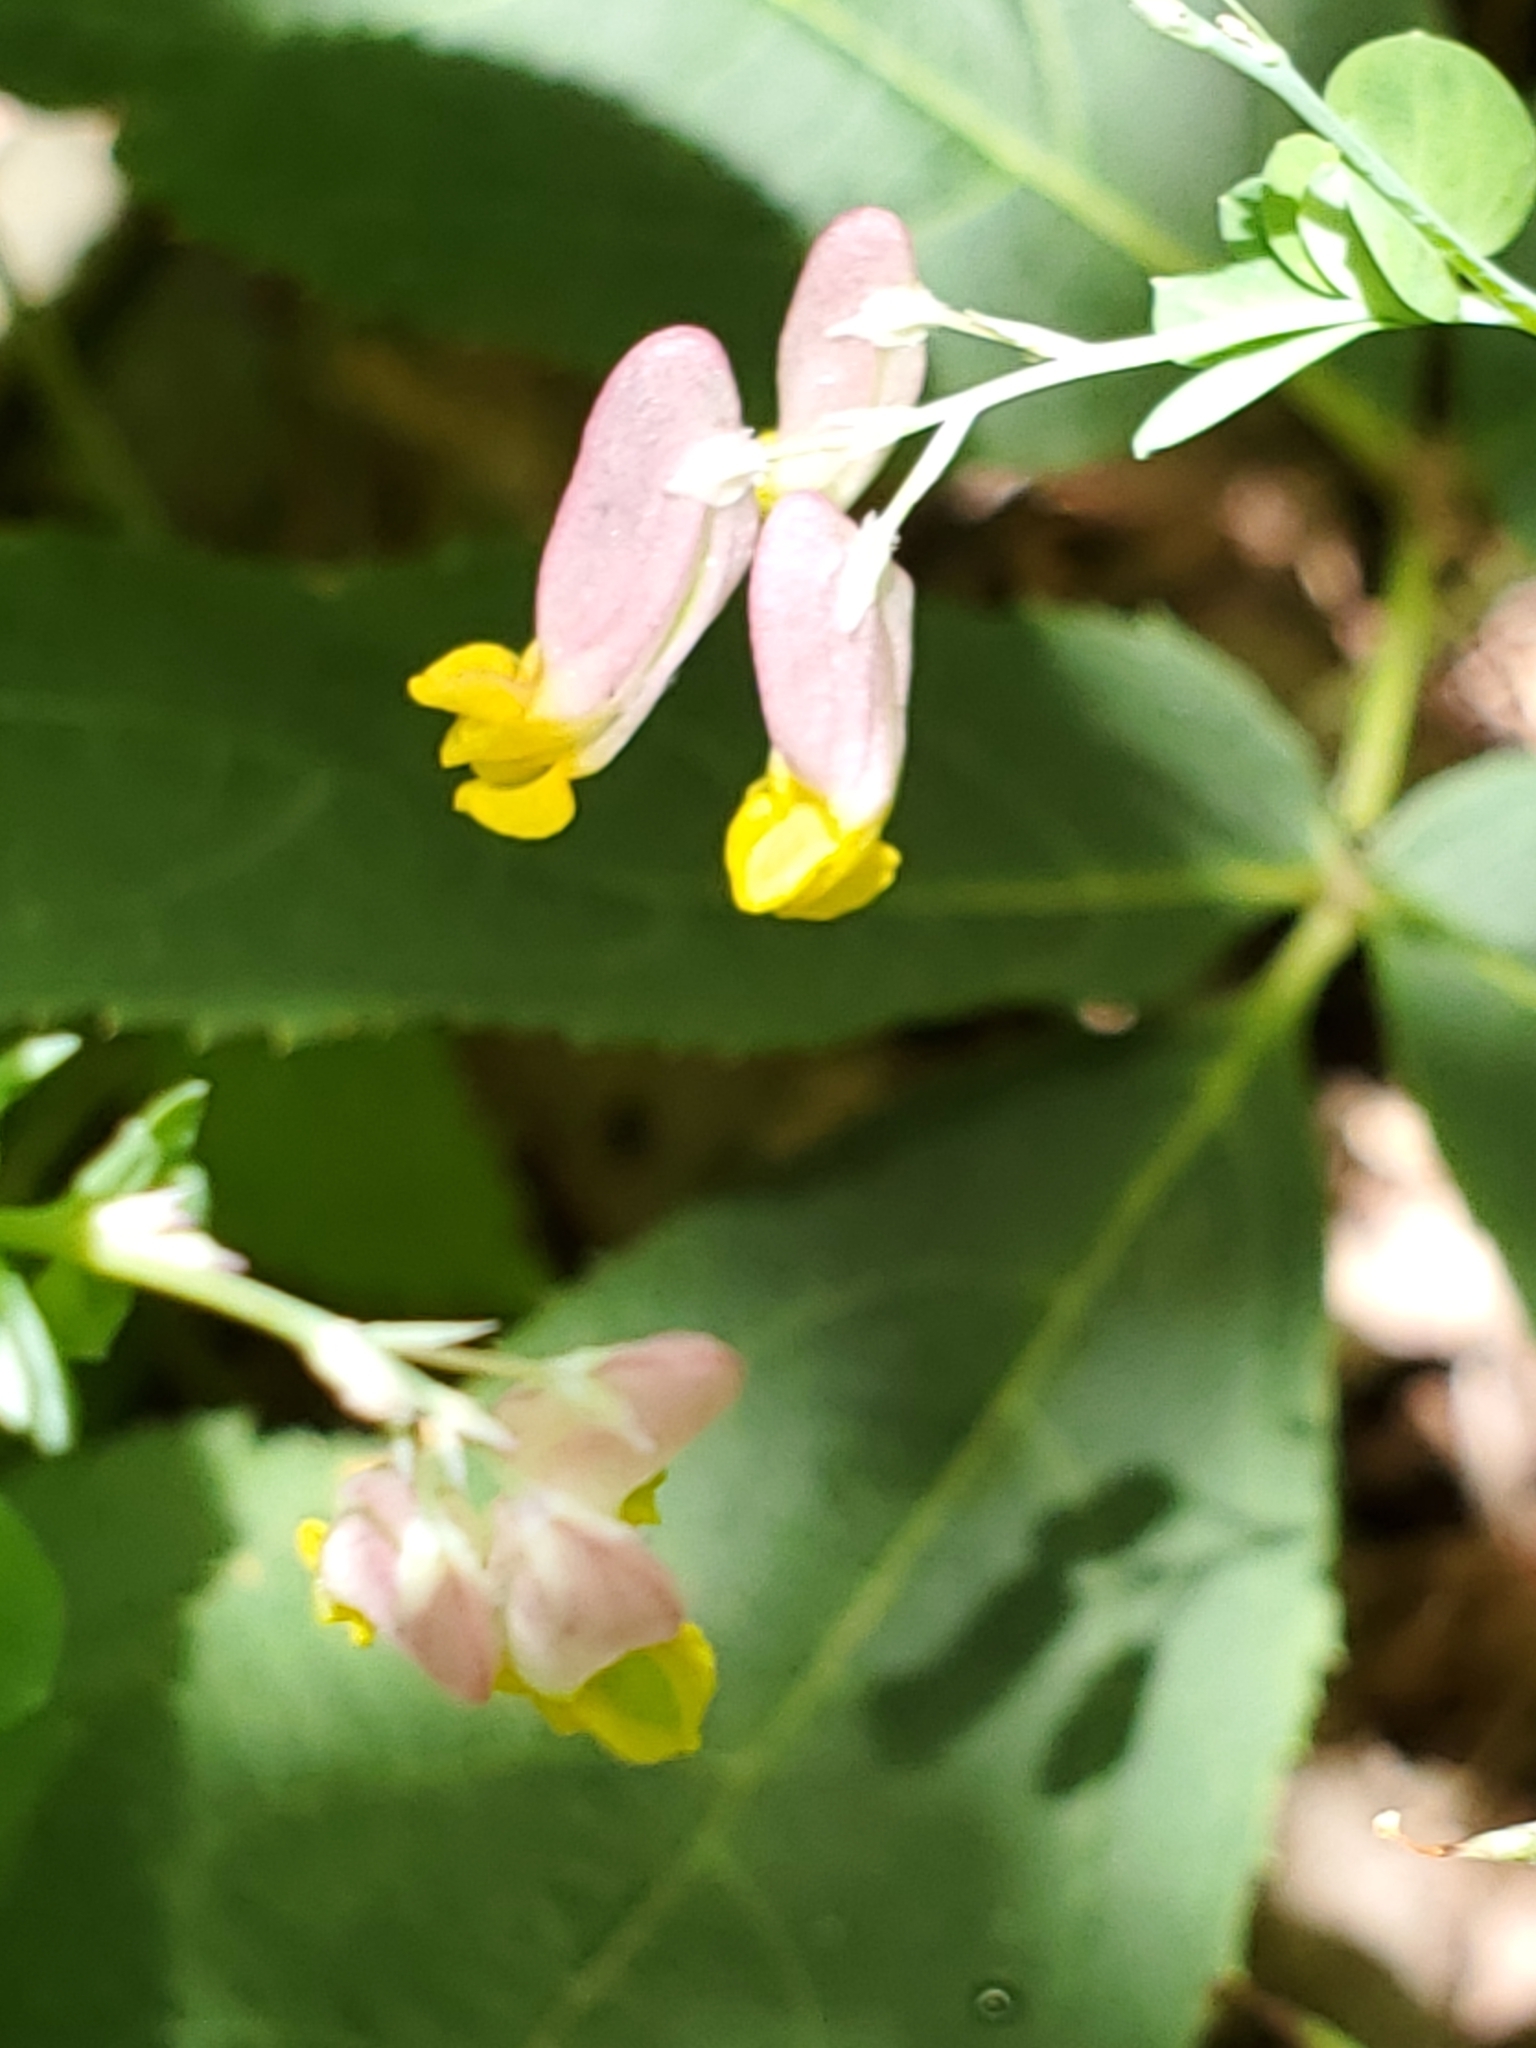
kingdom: Plantae
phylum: Tracheophyta
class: Magnoliopsida
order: Ranunculales
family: Papaveraceae
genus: Capnoides
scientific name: Capnoides sempervirens
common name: Rock harlequin
